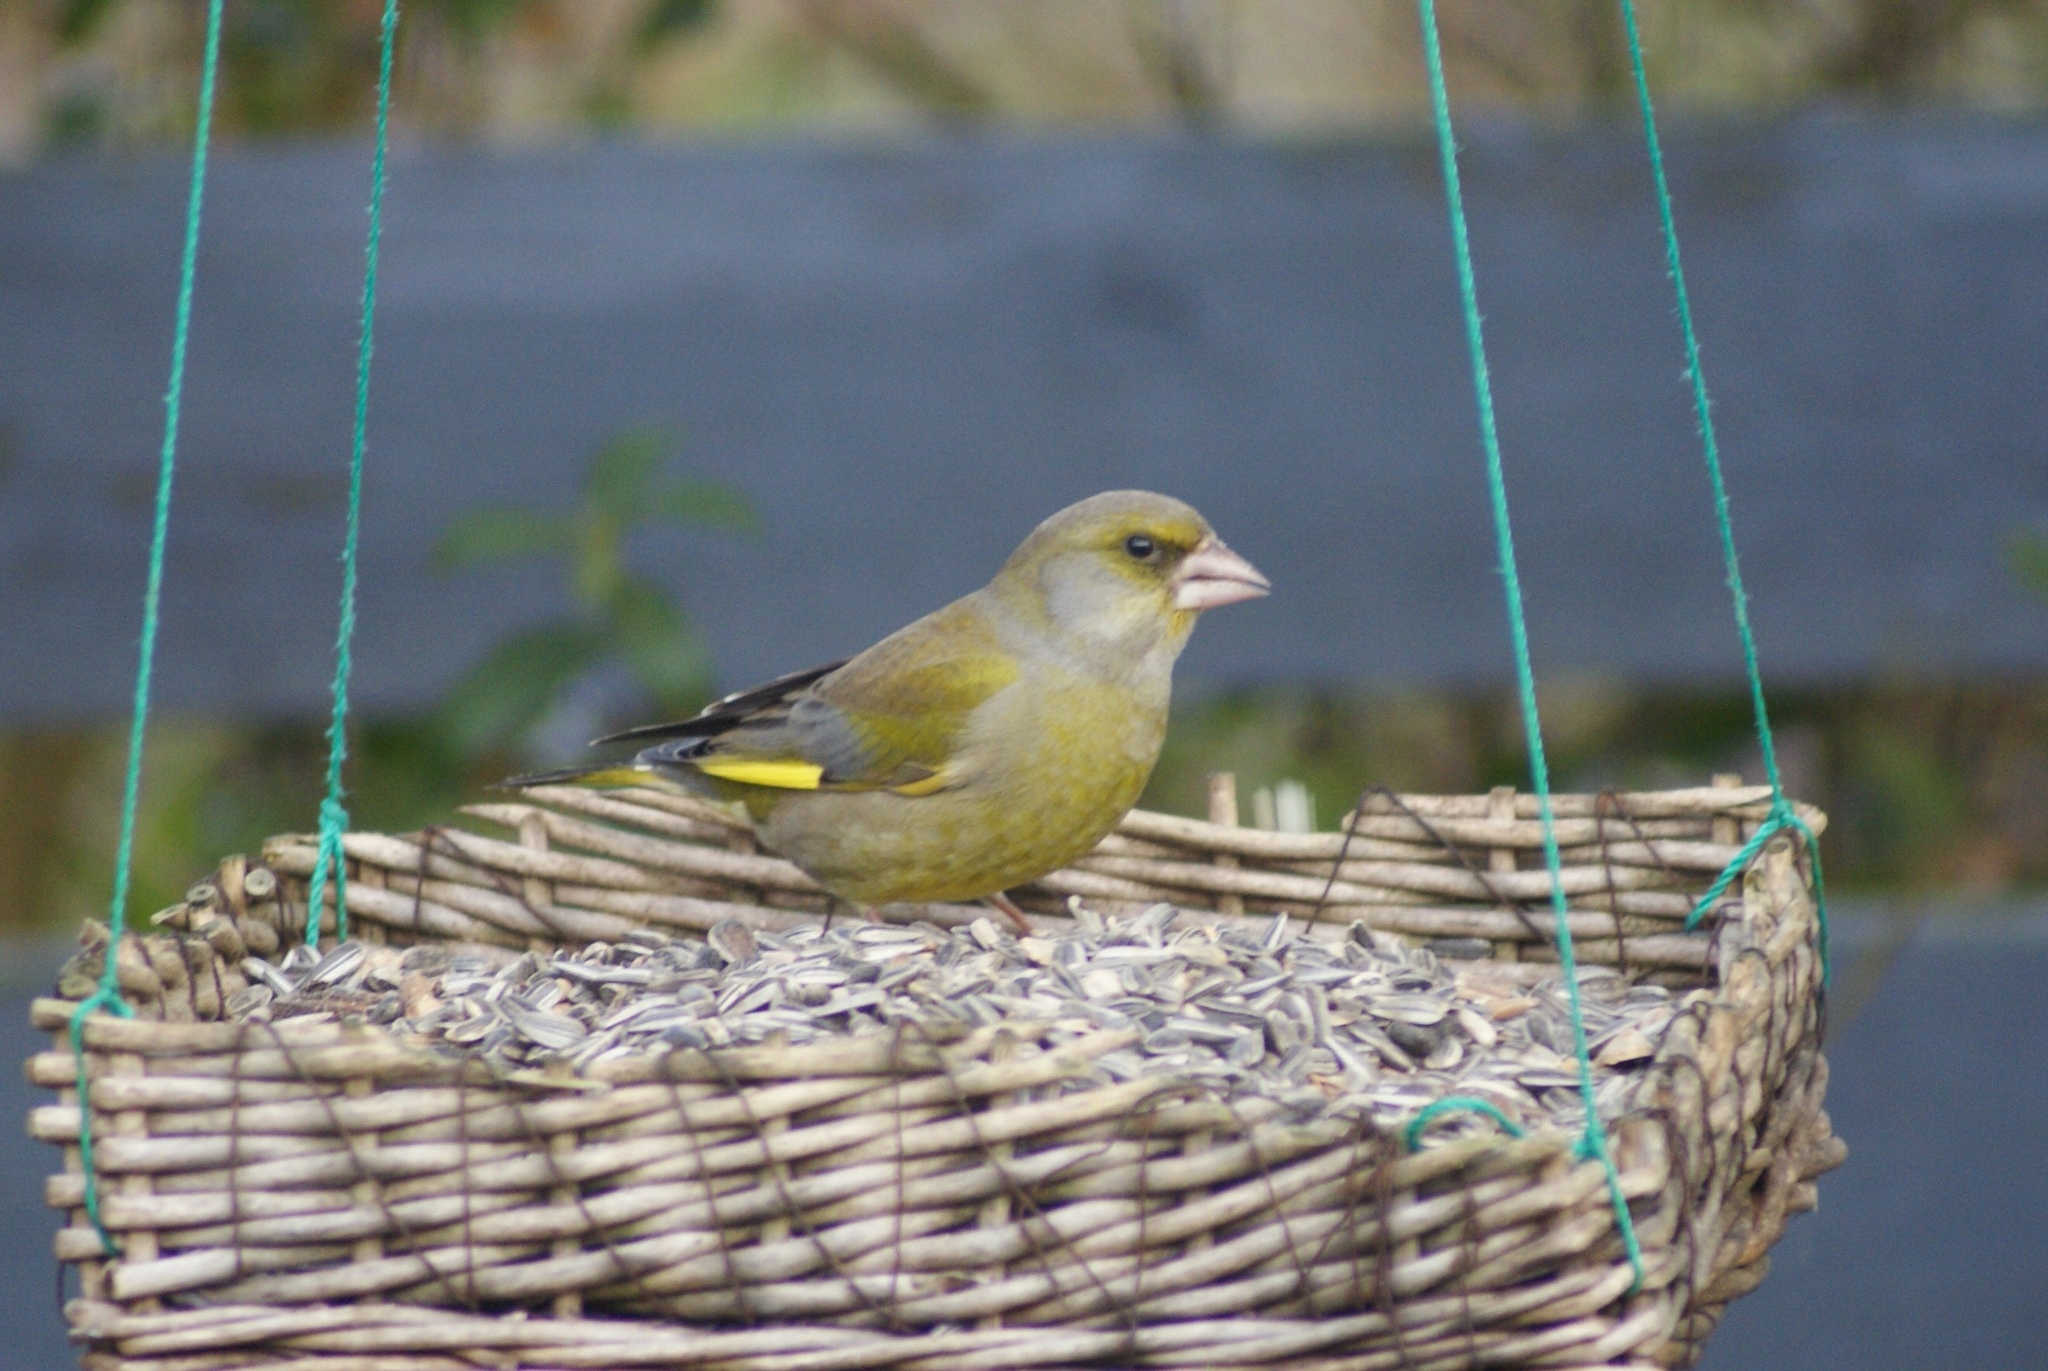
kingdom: Plantae
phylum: Tracheophyta
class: Liliopsida
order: Poales
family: Poaceae
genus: Chloris
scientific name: Chloris chloris
